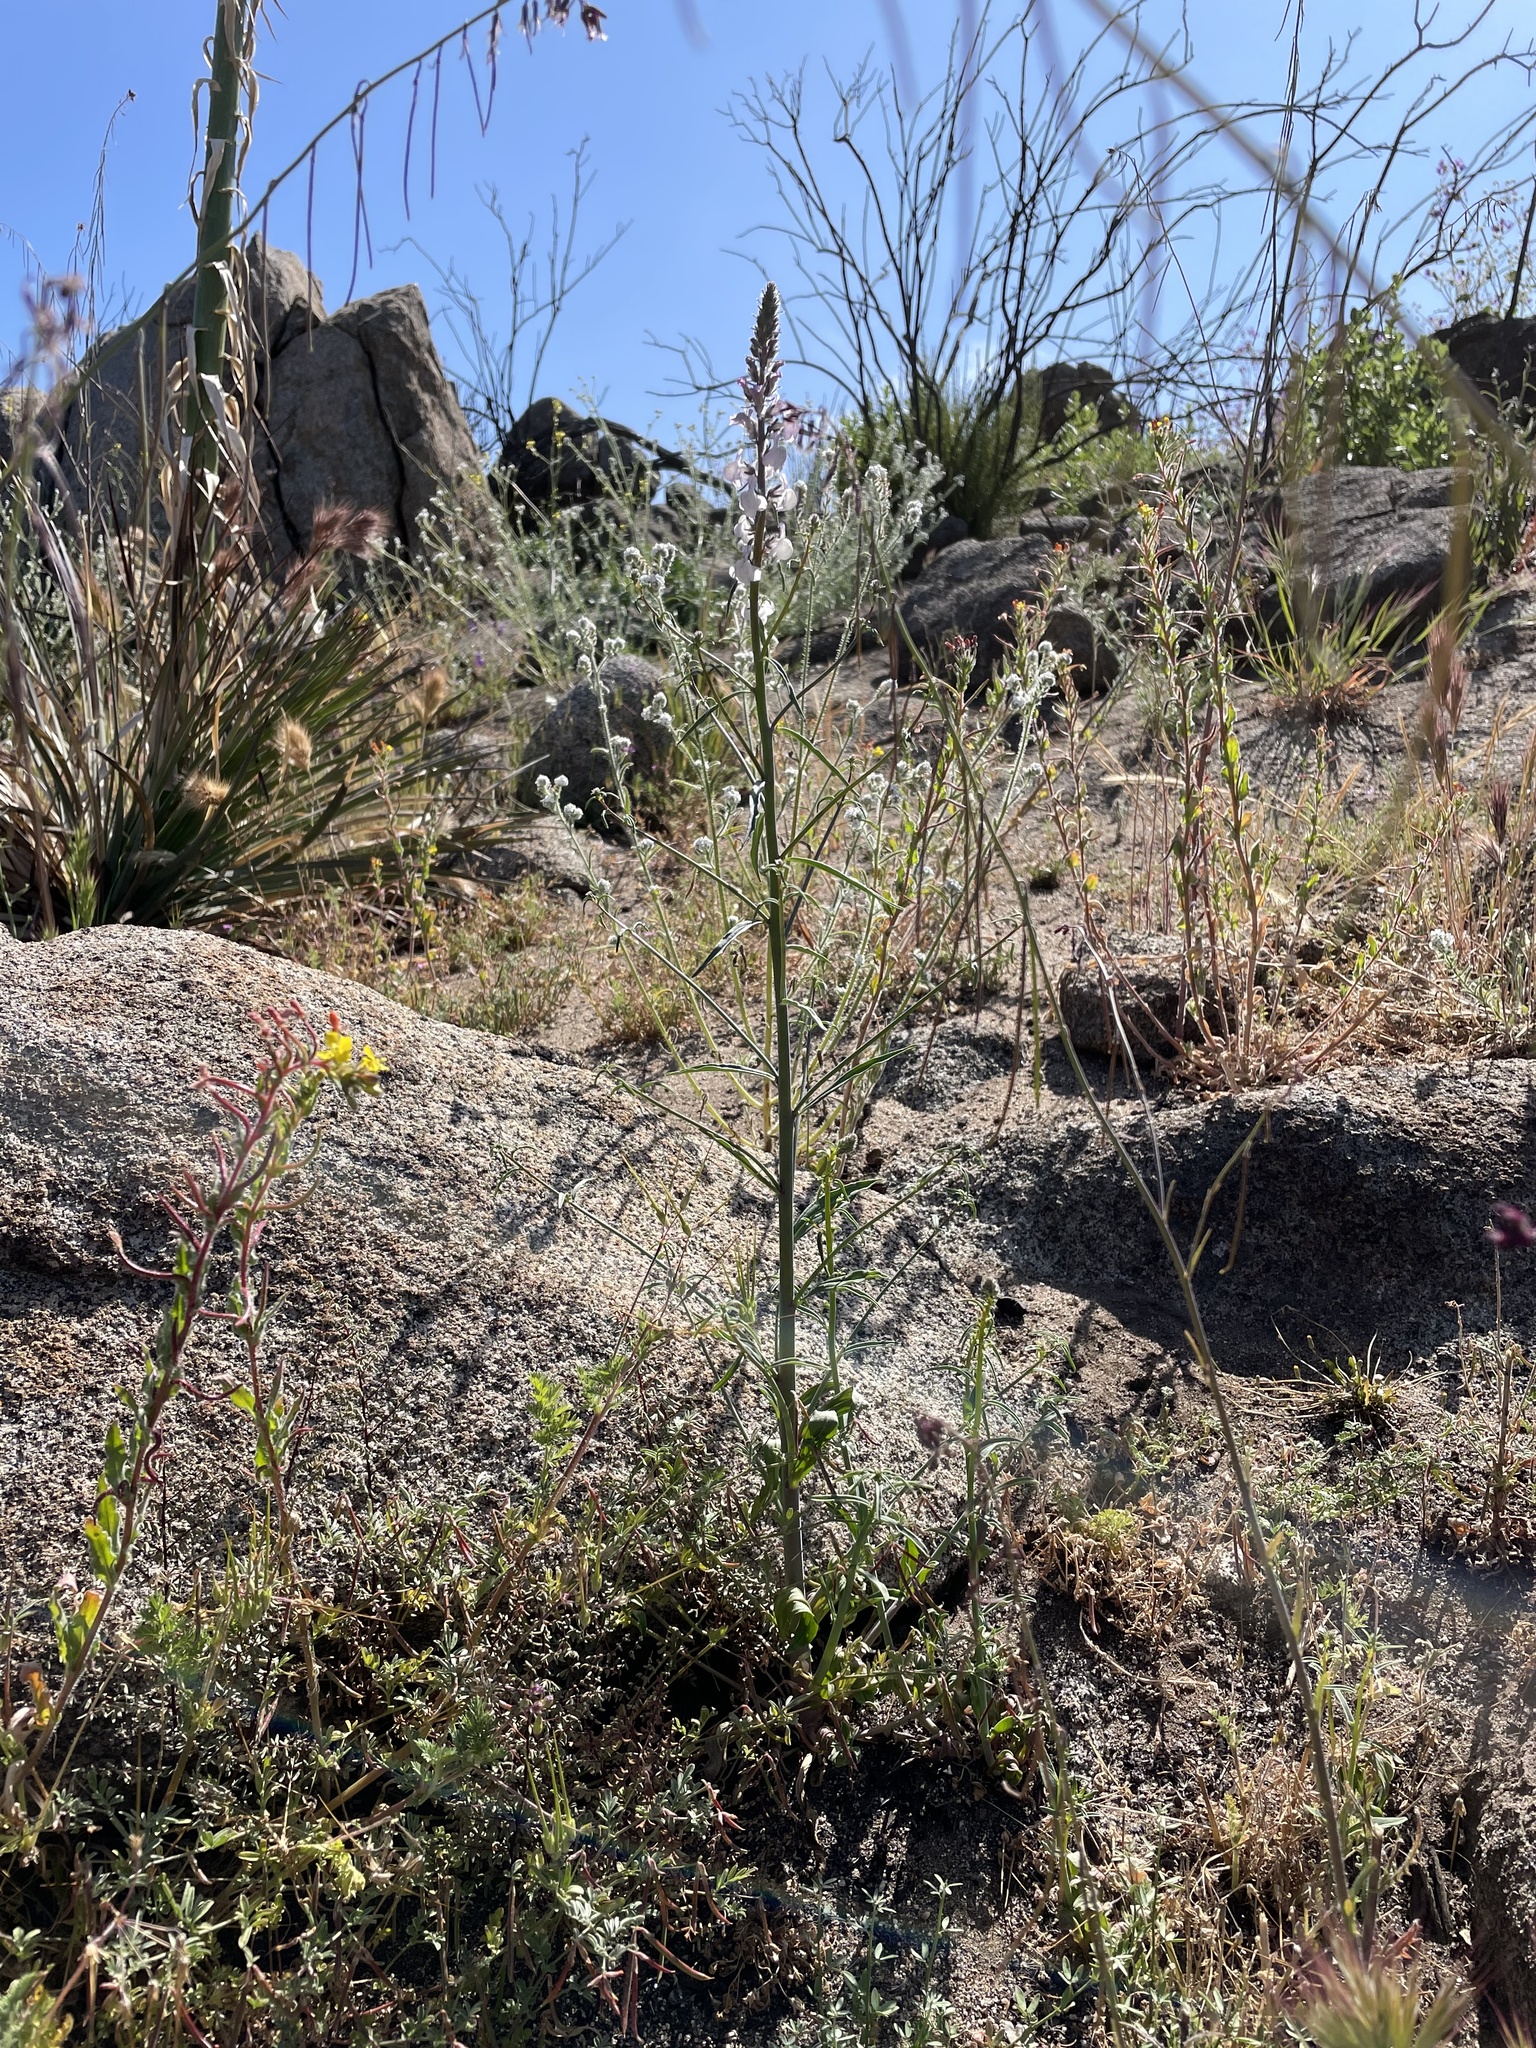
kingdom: Plantae
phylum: Tracheophyta
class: Magnoliopsida
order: Lamiales
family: Plantaginaceae
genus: Sairocarpus
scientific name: Sairocarpus coulterianus
